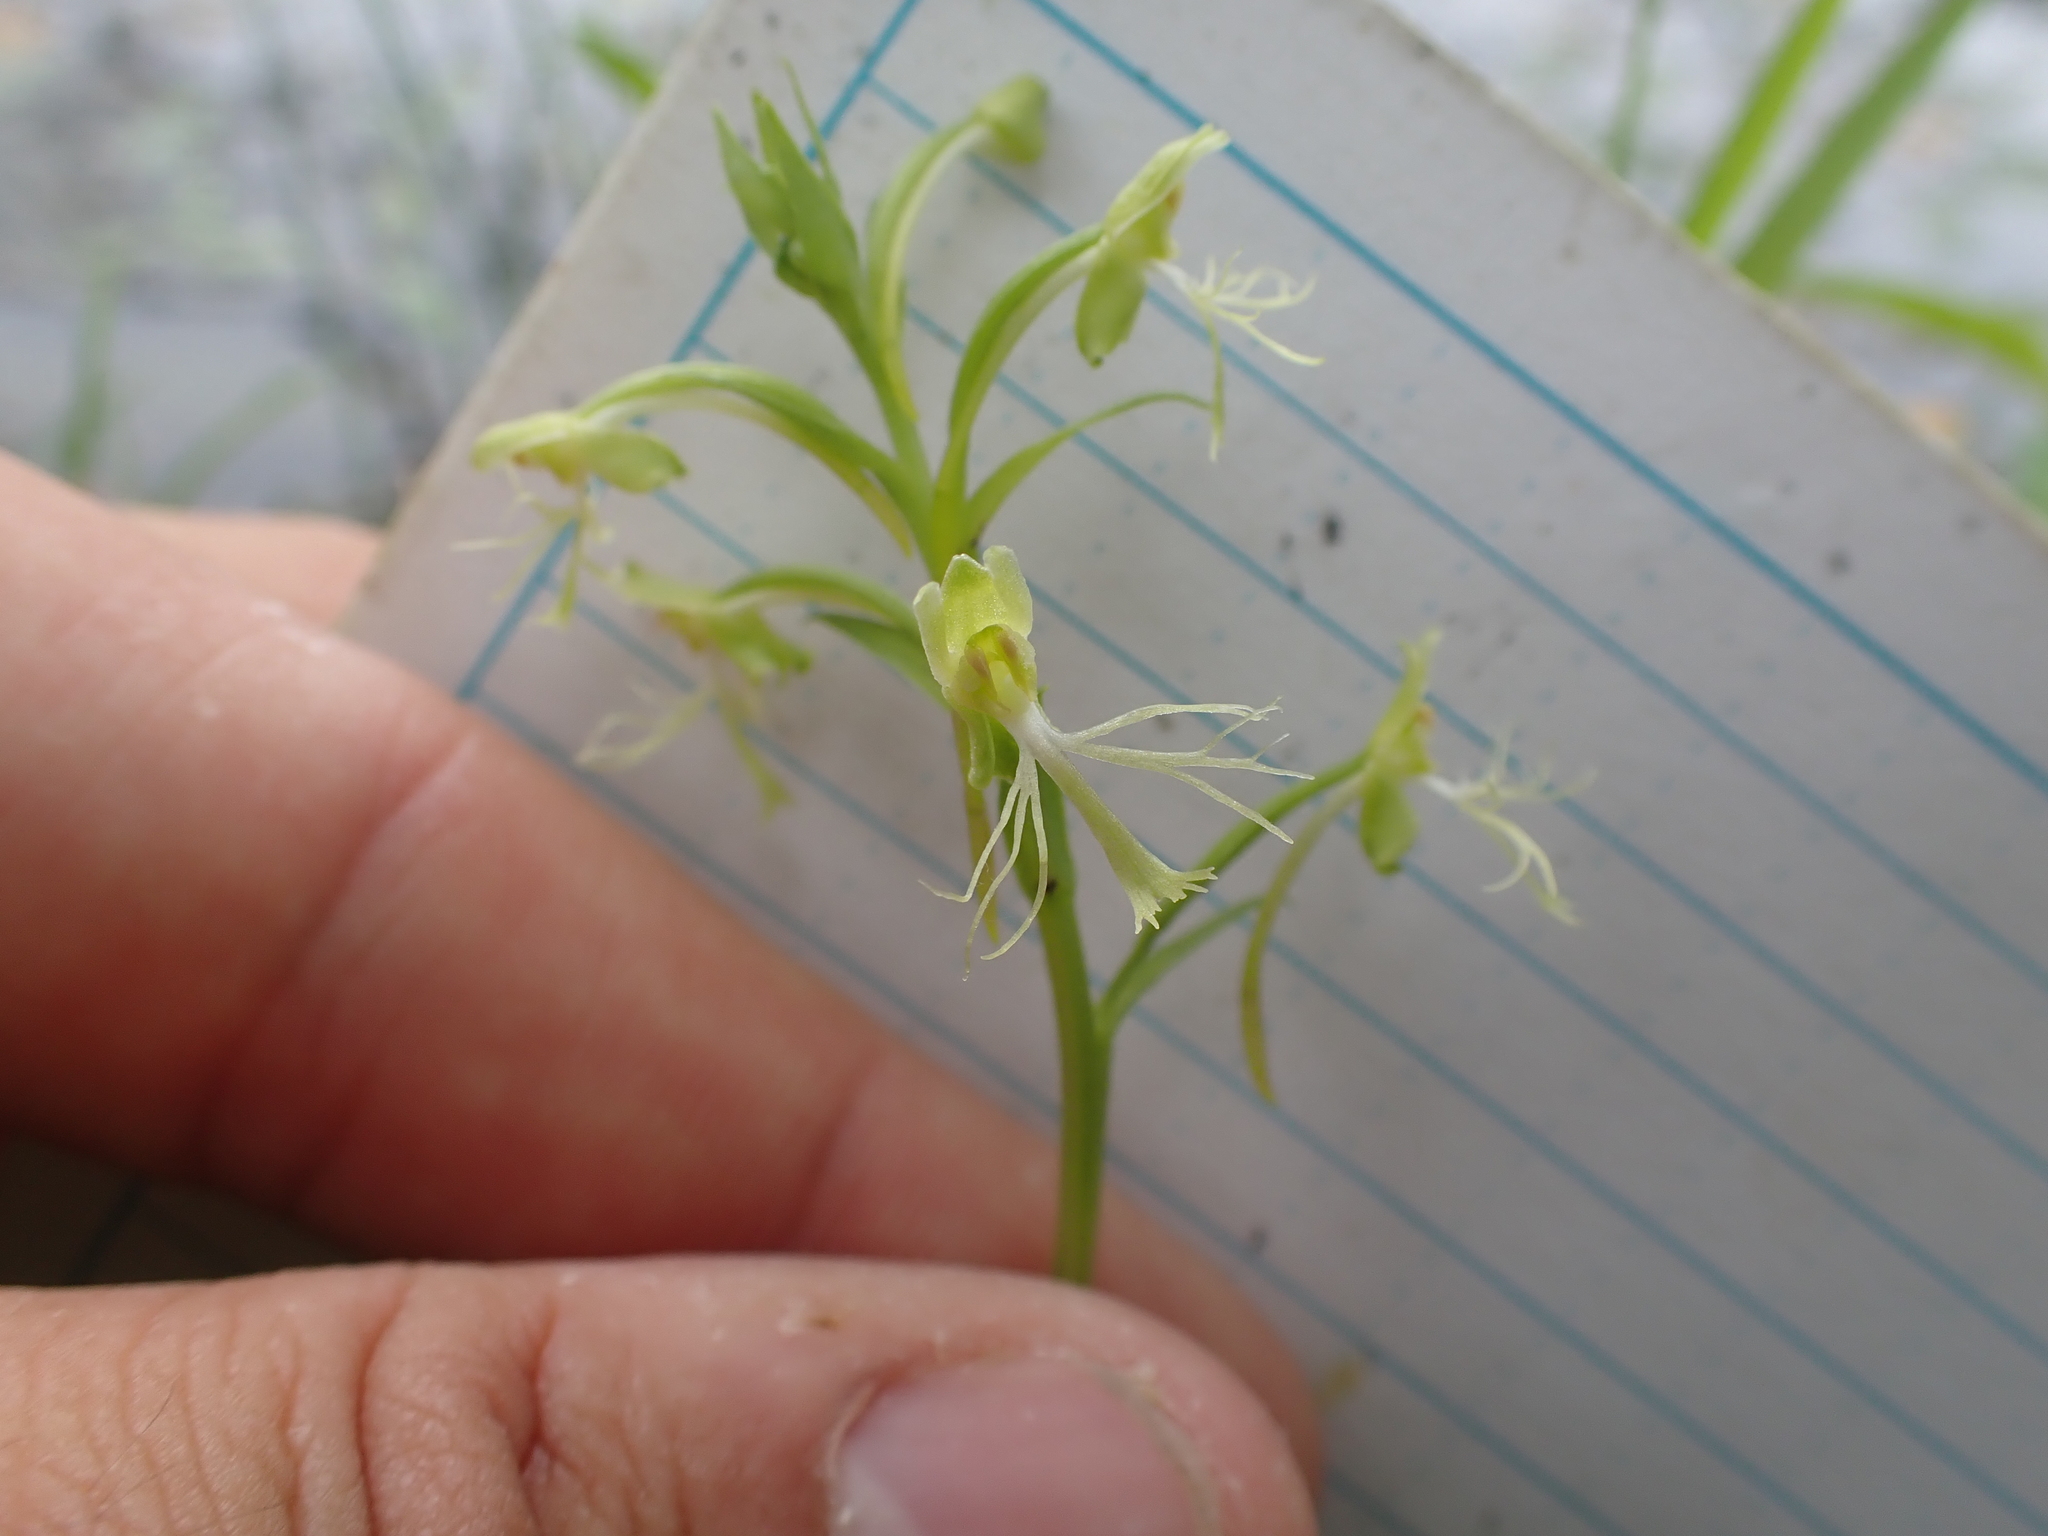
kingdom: Plantae
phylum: Tracheophyta
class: Liliopsida
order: Asparagales
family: Orchidaceae
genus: Platanthera
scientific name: Platanthera lacera
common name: Green fringed orchid
